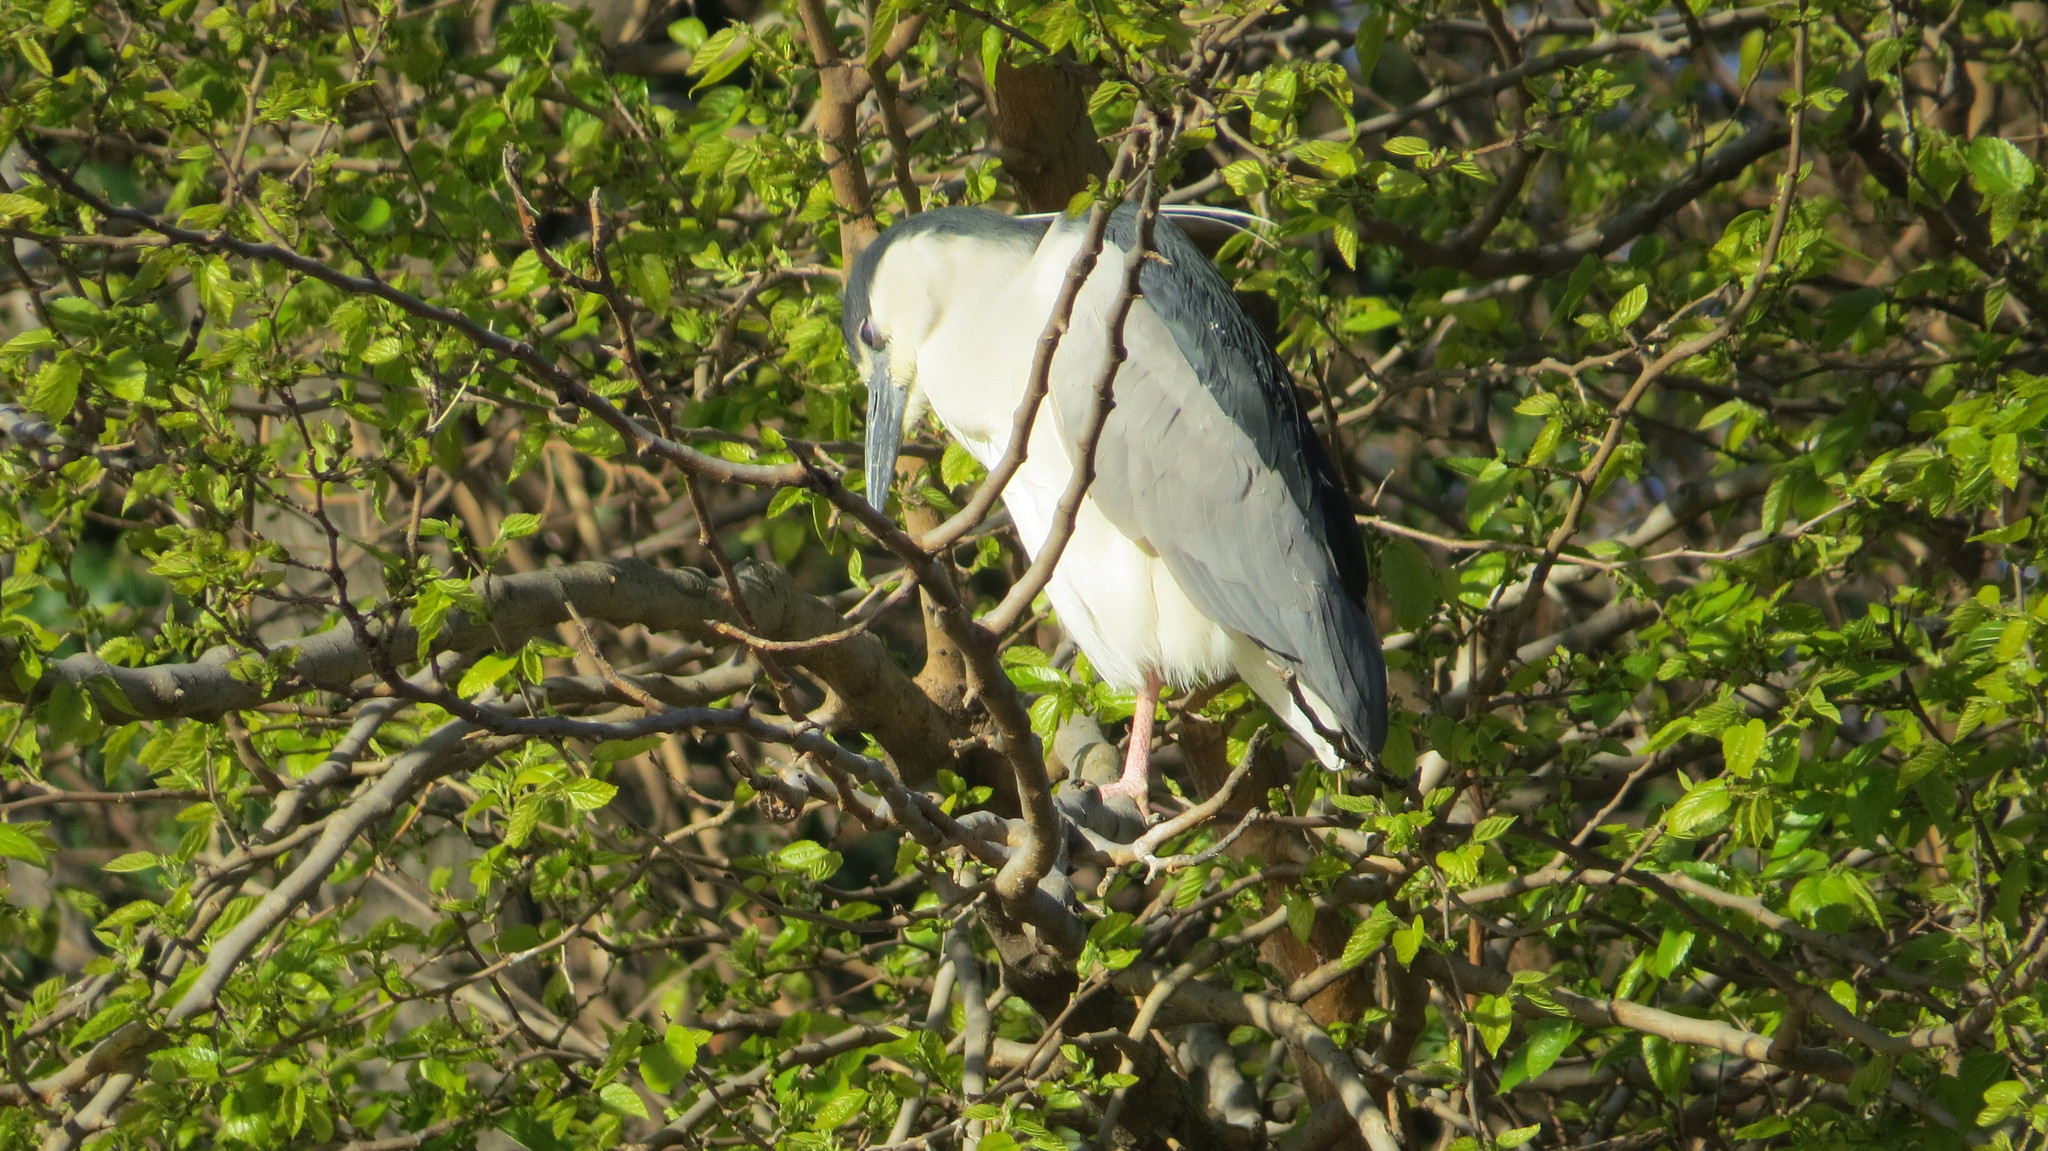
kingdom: Animalia
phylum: Chordata
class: Aves
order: Pelecaniformes
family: Ardeidae
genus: Nycticorax
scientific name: Nycticorax nycticorax
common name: Black-crowned night heron
